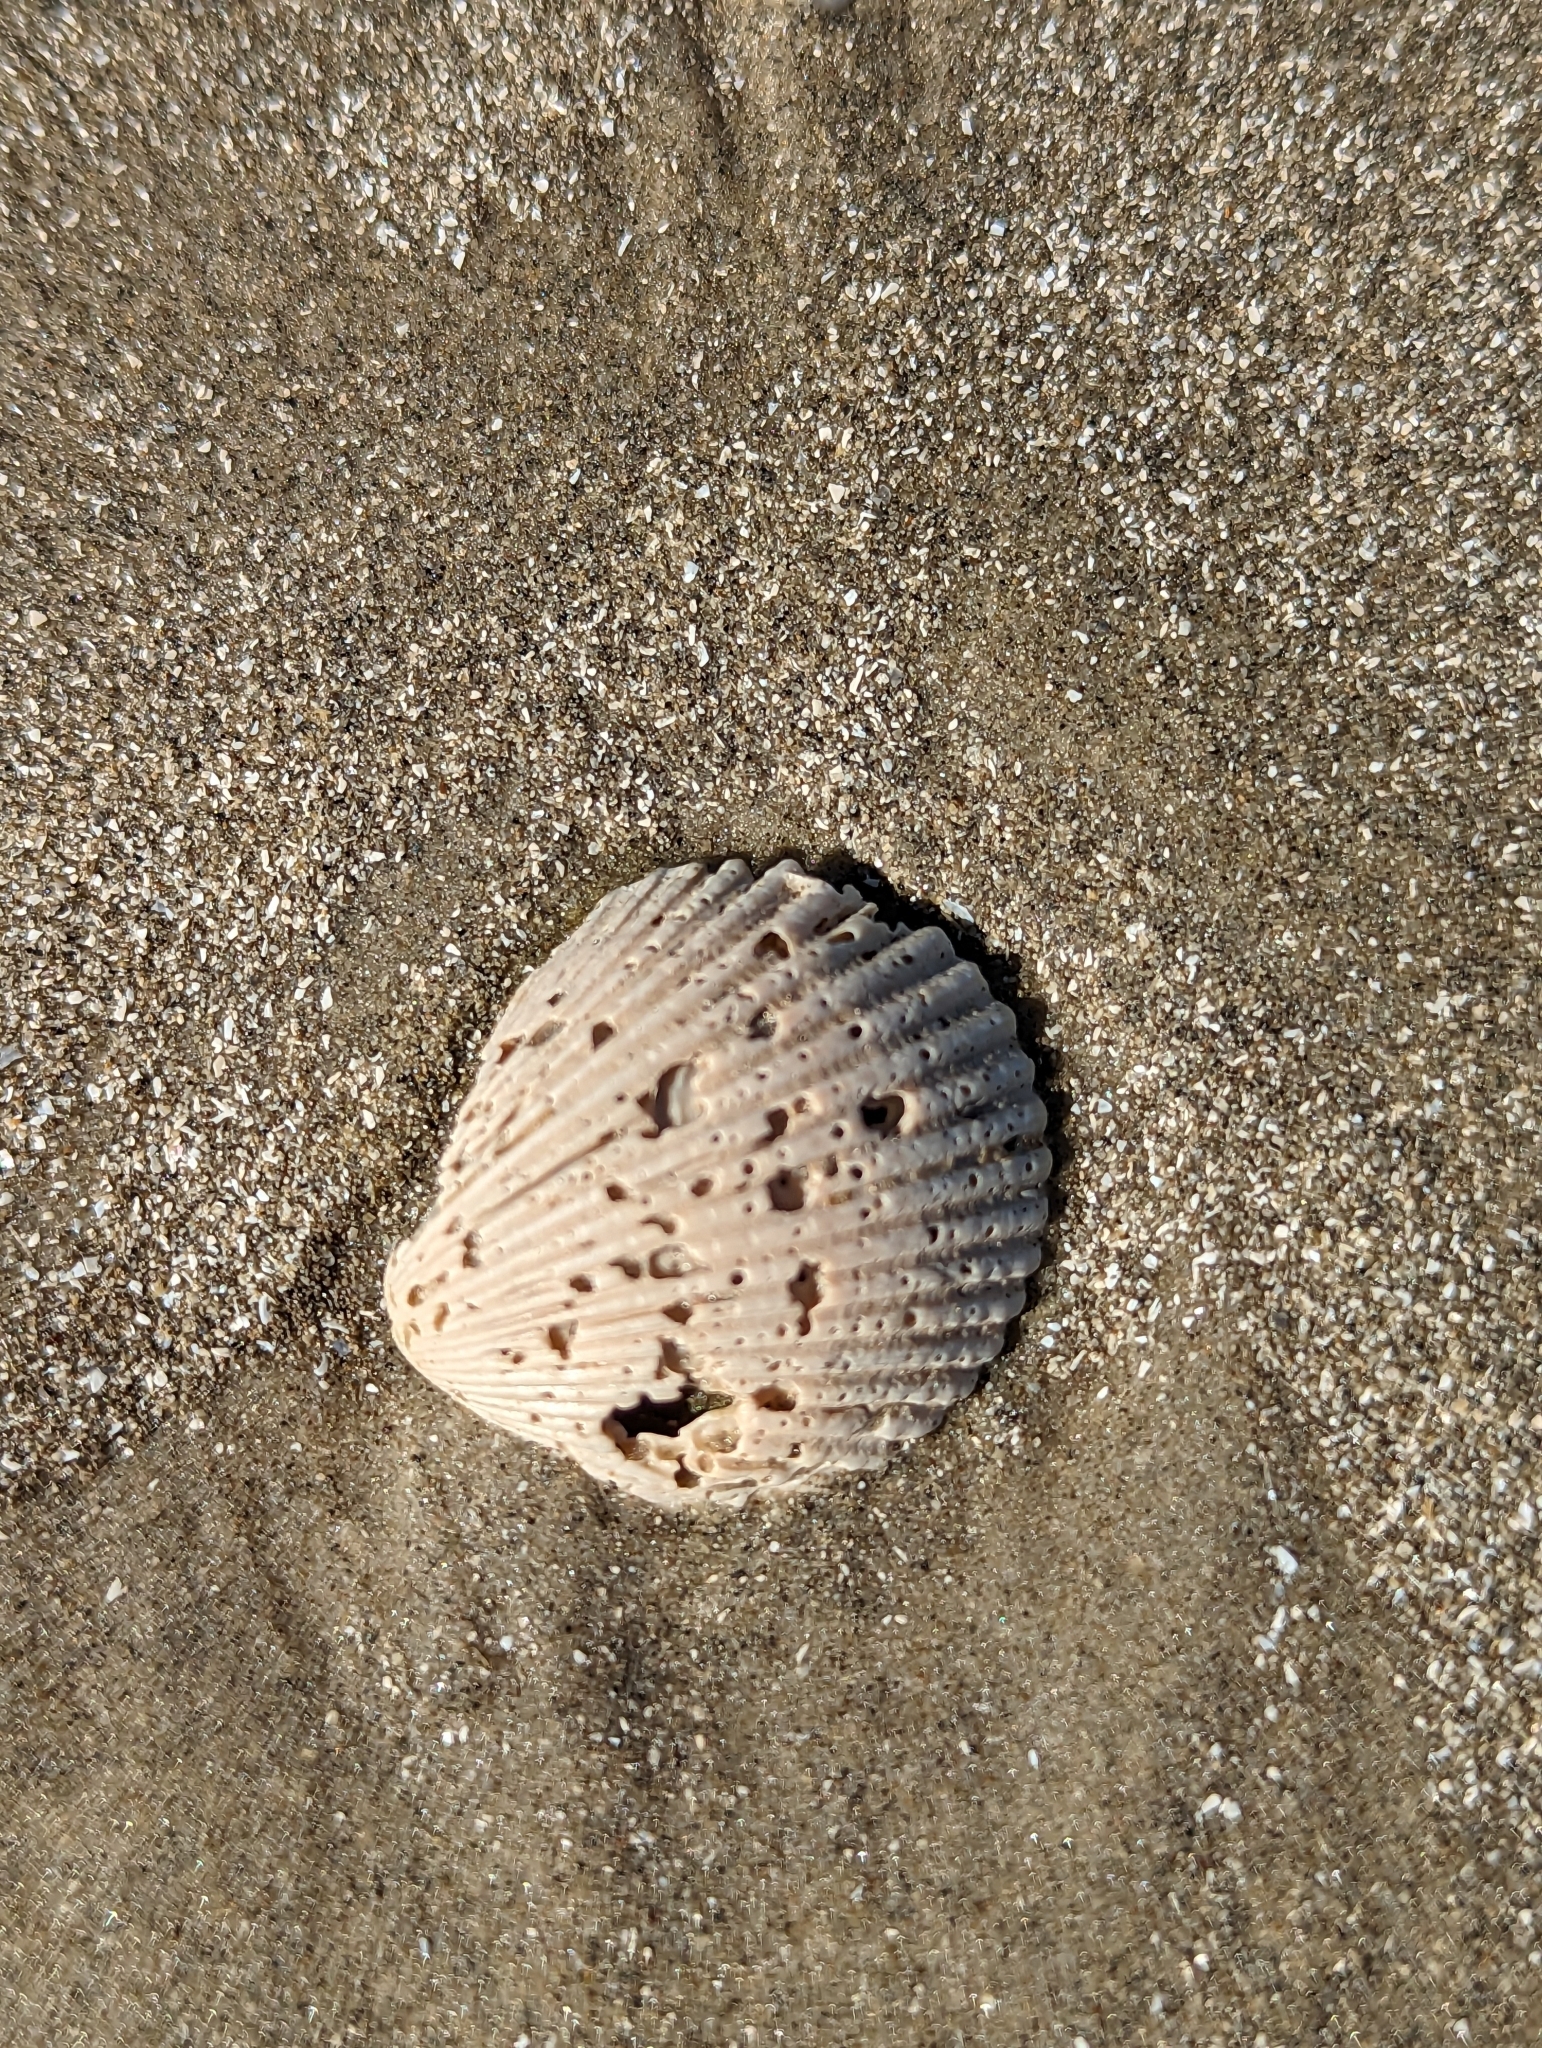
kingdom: Animalia
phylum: Mollusca
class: Bivalvia
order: Arcida
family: Arcidae
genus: Lunarca
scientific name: Lunarca ovalis
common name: Blood ark
